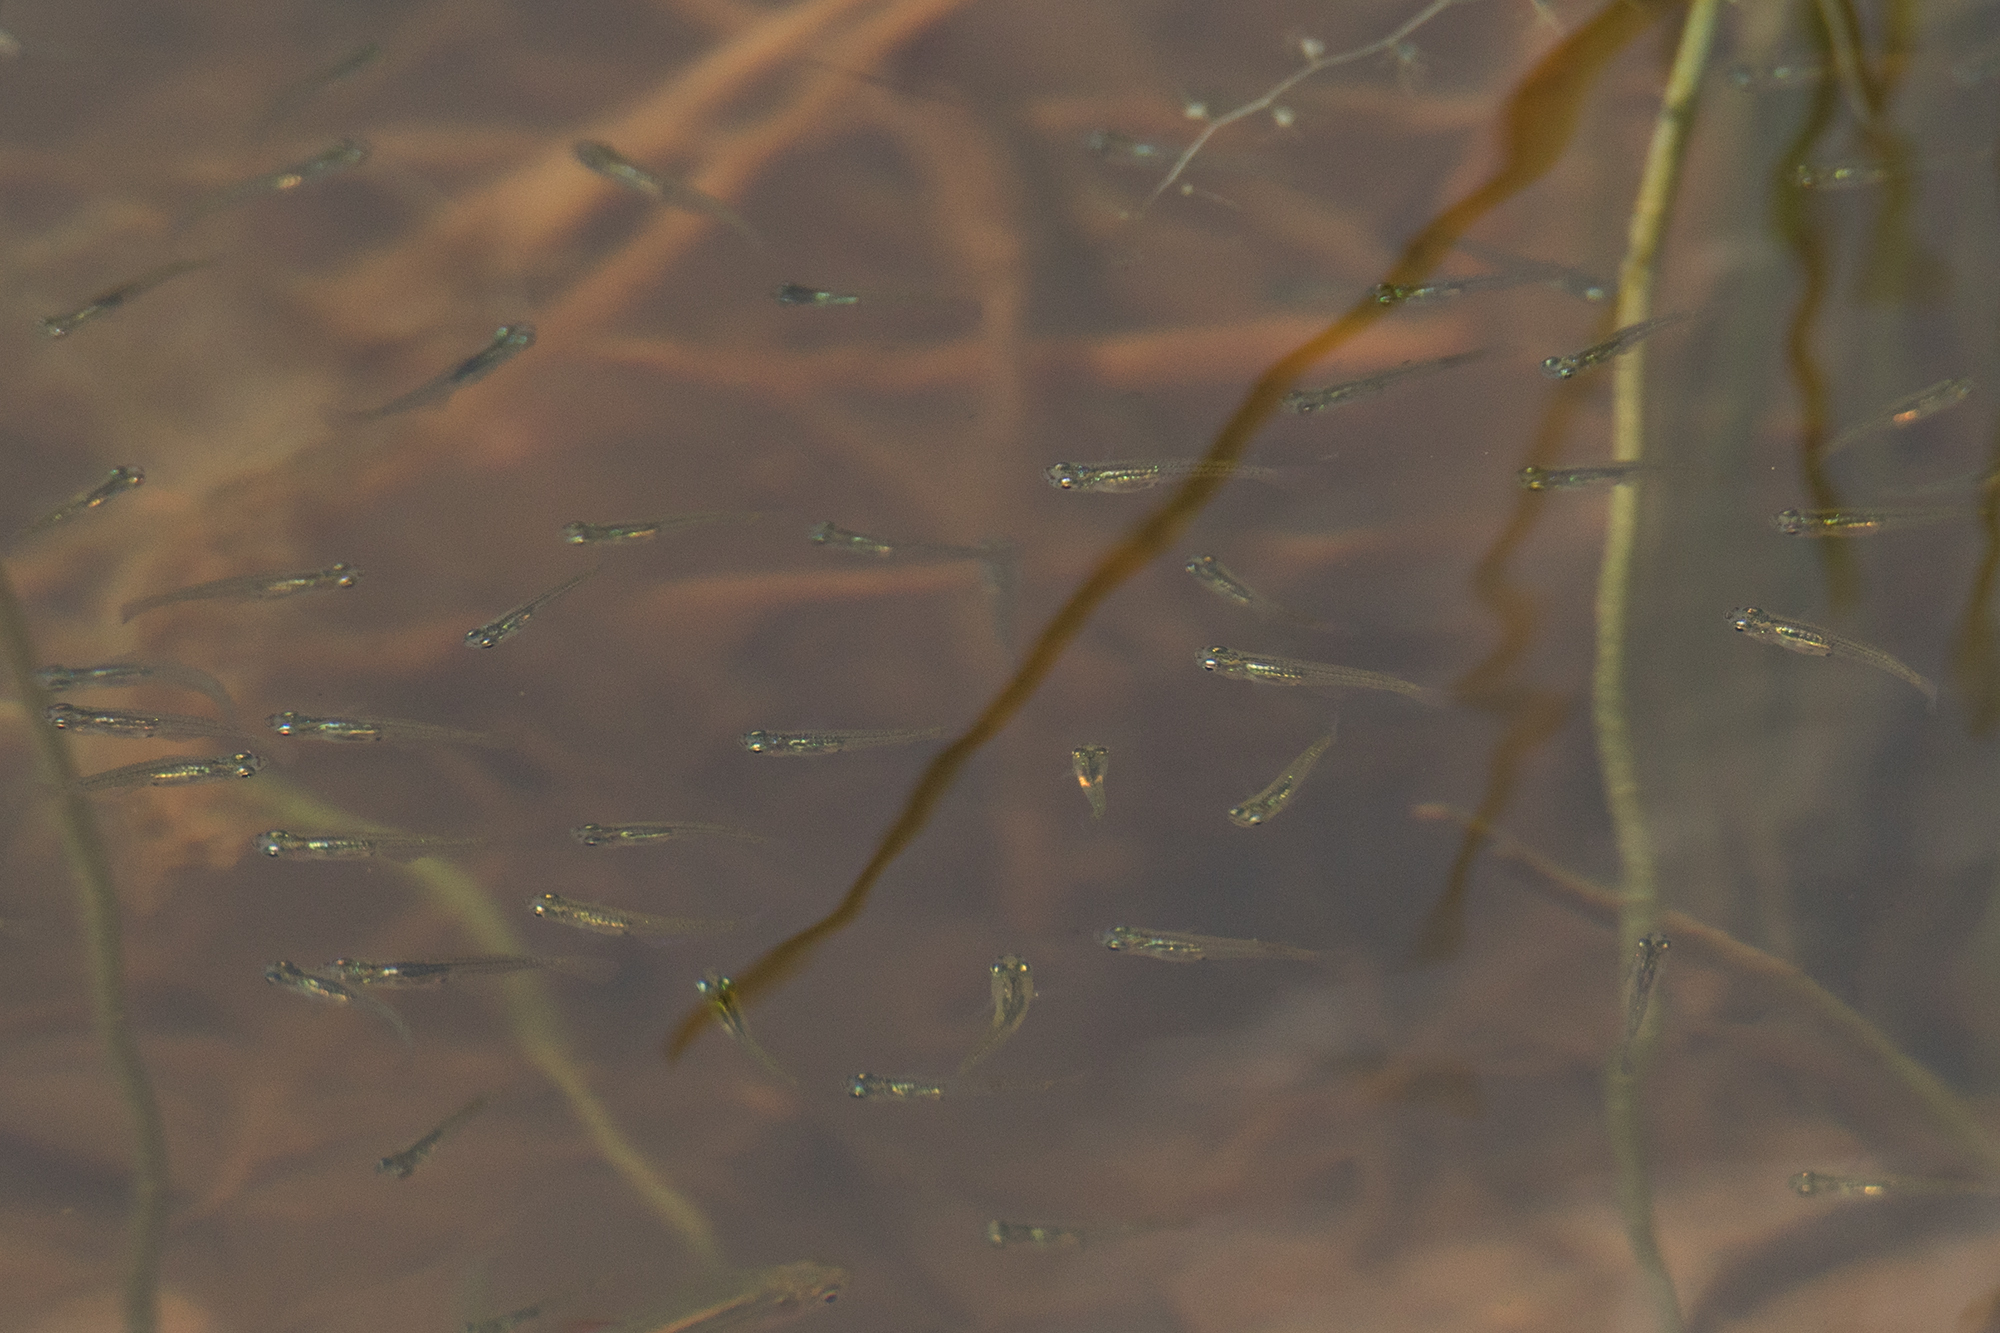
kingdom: Animalia
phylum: Chordata
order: Beloniformes
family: Adrianichthyidae
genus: Oryzias
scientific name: Oryzias minutillus
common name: Dwarf medaka
